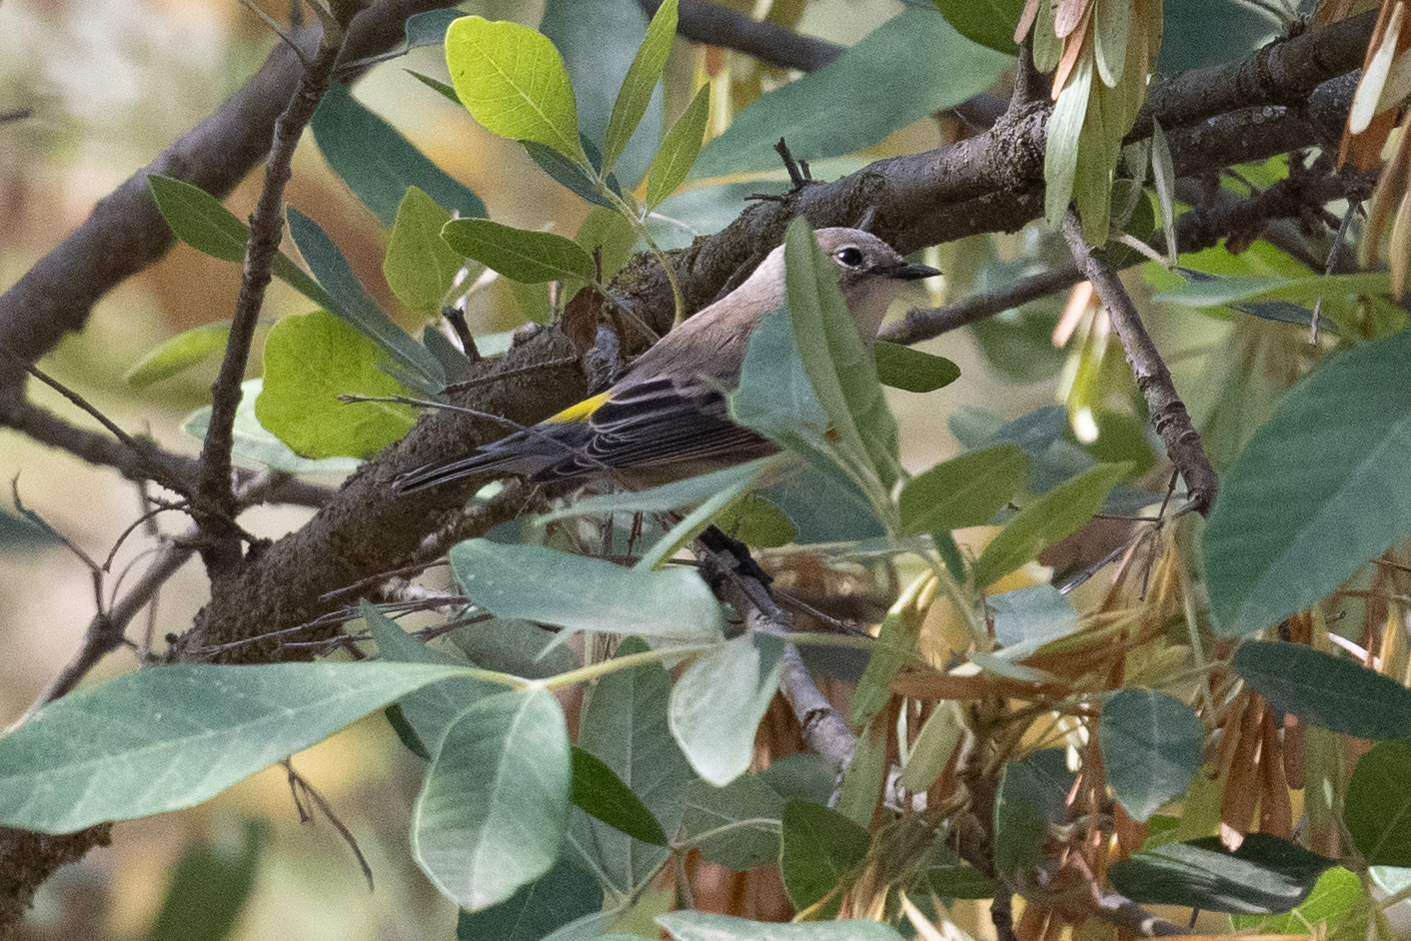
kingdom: Animalia
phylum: Chordata
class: Aves
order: Passeriformes
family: Parulidae
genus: Setophaga
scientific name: Setophaga coronata
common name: Myrtle warbler
